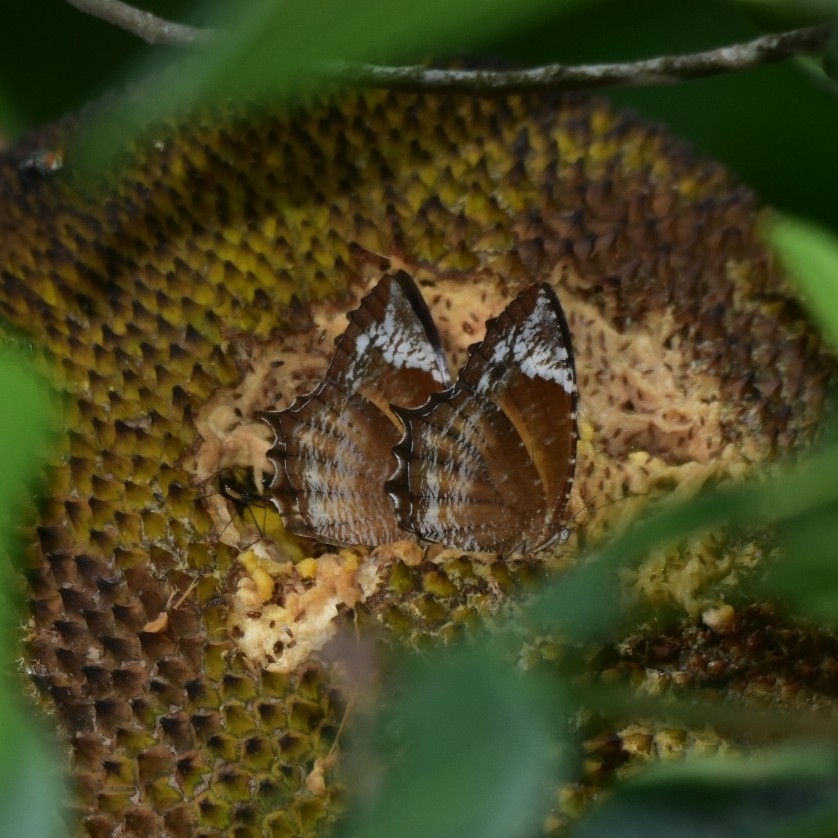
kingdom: Animalia
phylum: Arthropoda
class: Insecta
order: Lepidoptera
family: Nymphalidae
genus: Elymnias
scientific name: Elymnias caudata
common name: Tailed palmfly
